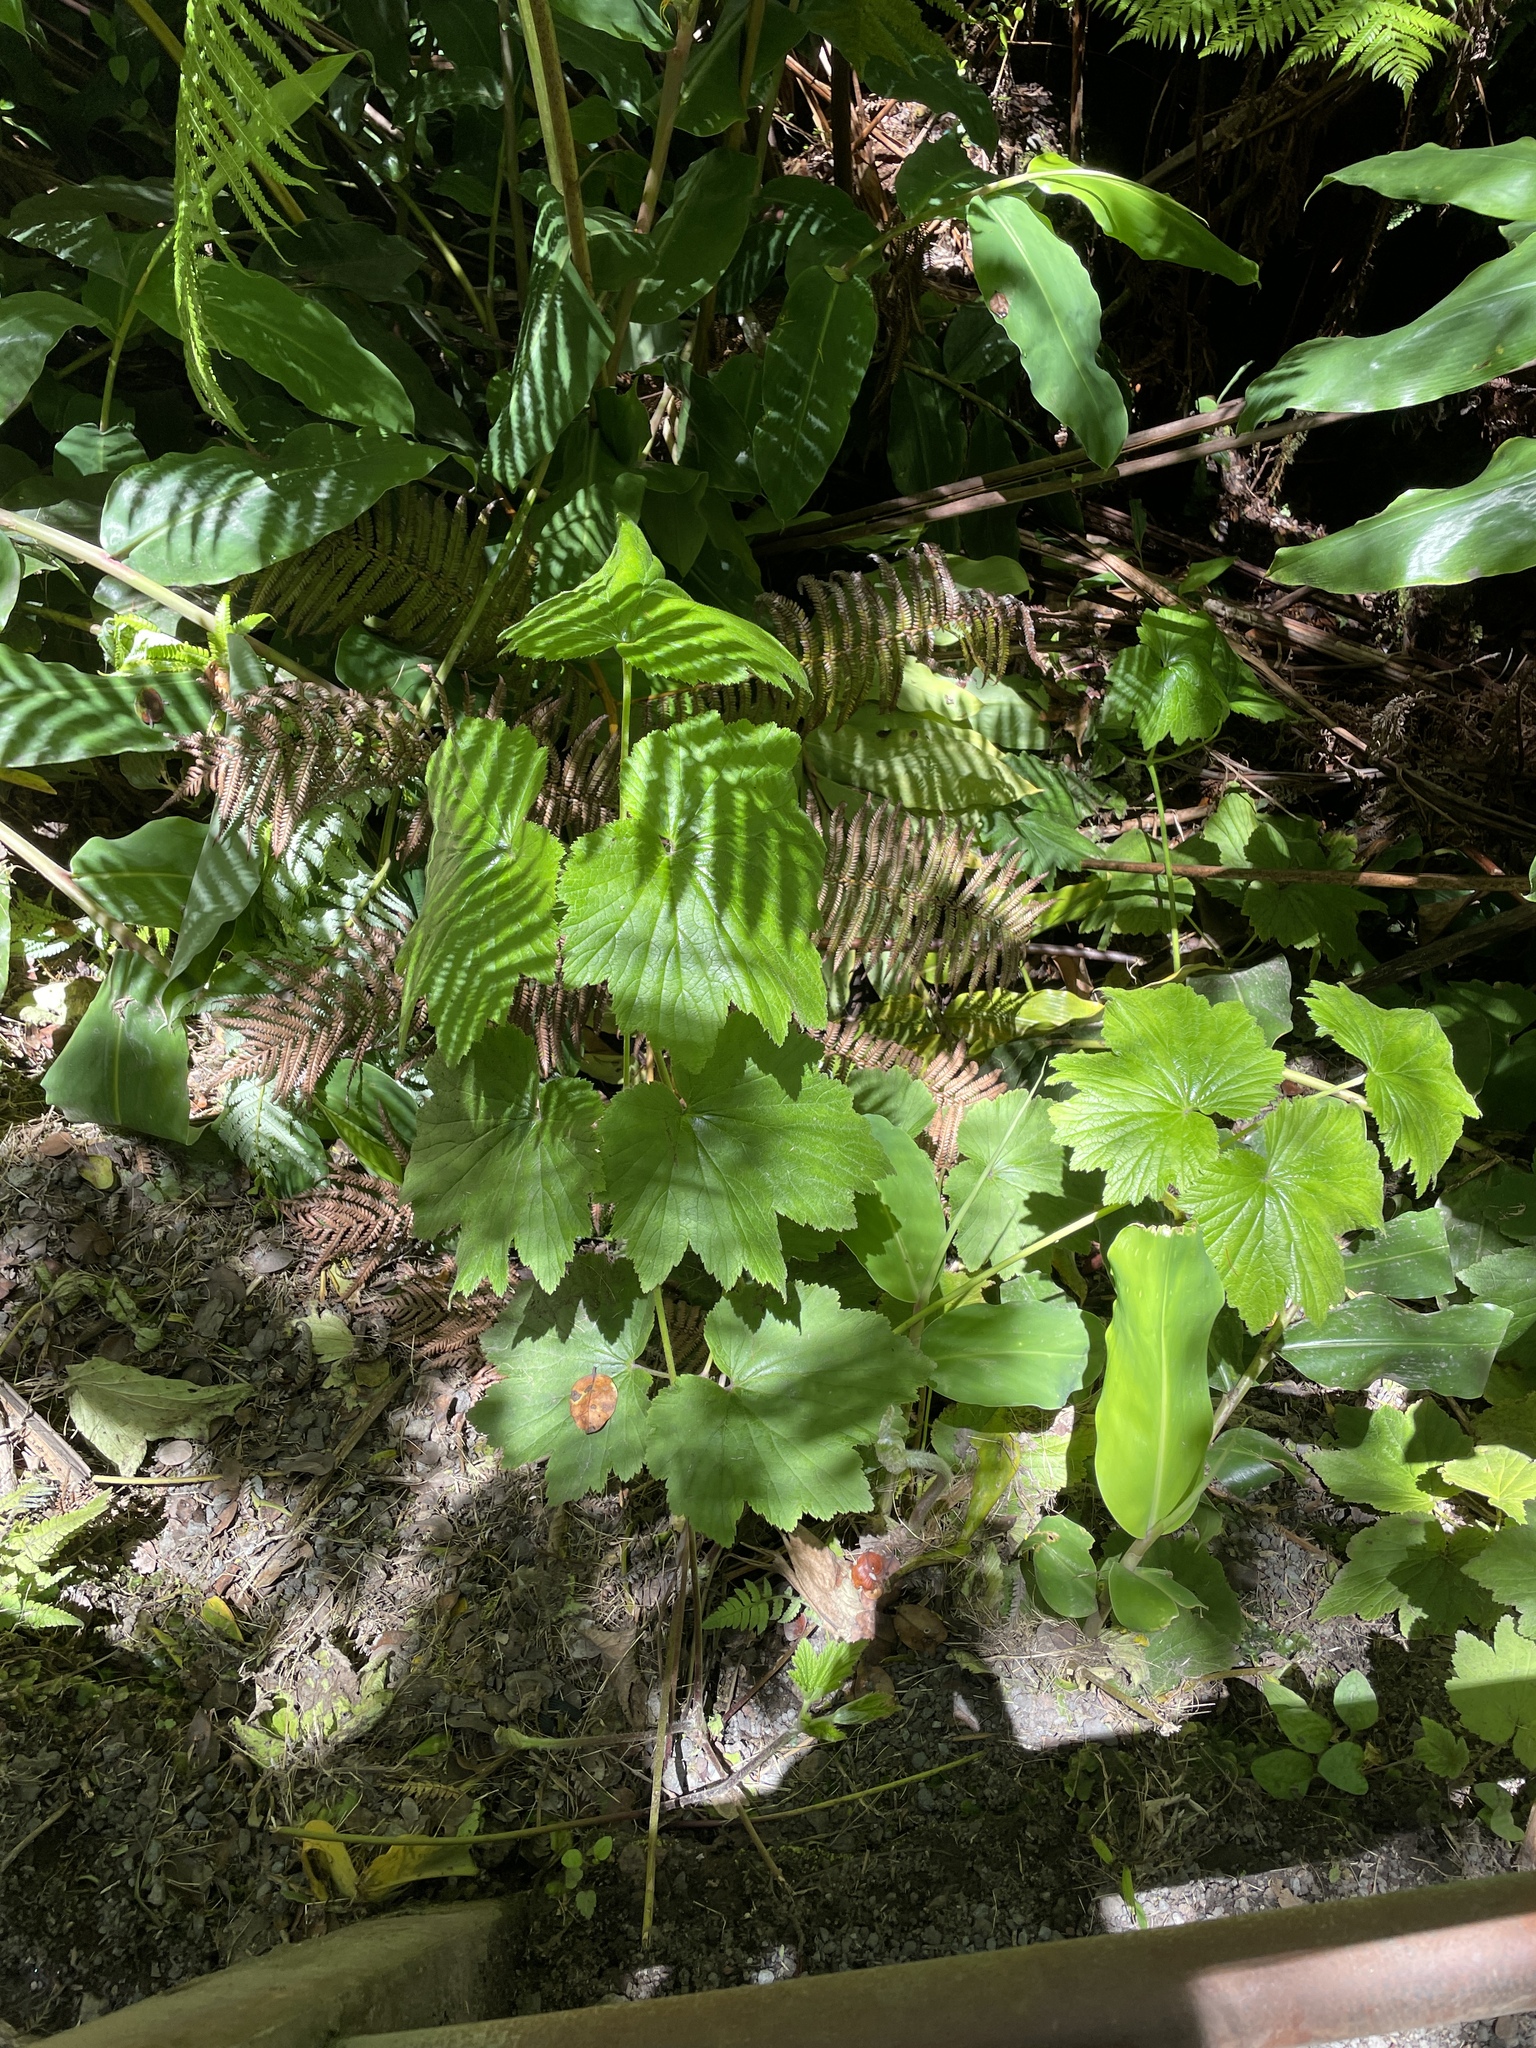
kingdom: Plantae
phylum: Tracheophyta
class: Magnoliopsida
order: Ranunculales
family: Ranunculaceae
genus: Eriocapitella
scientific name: Eriocapitella japonica
